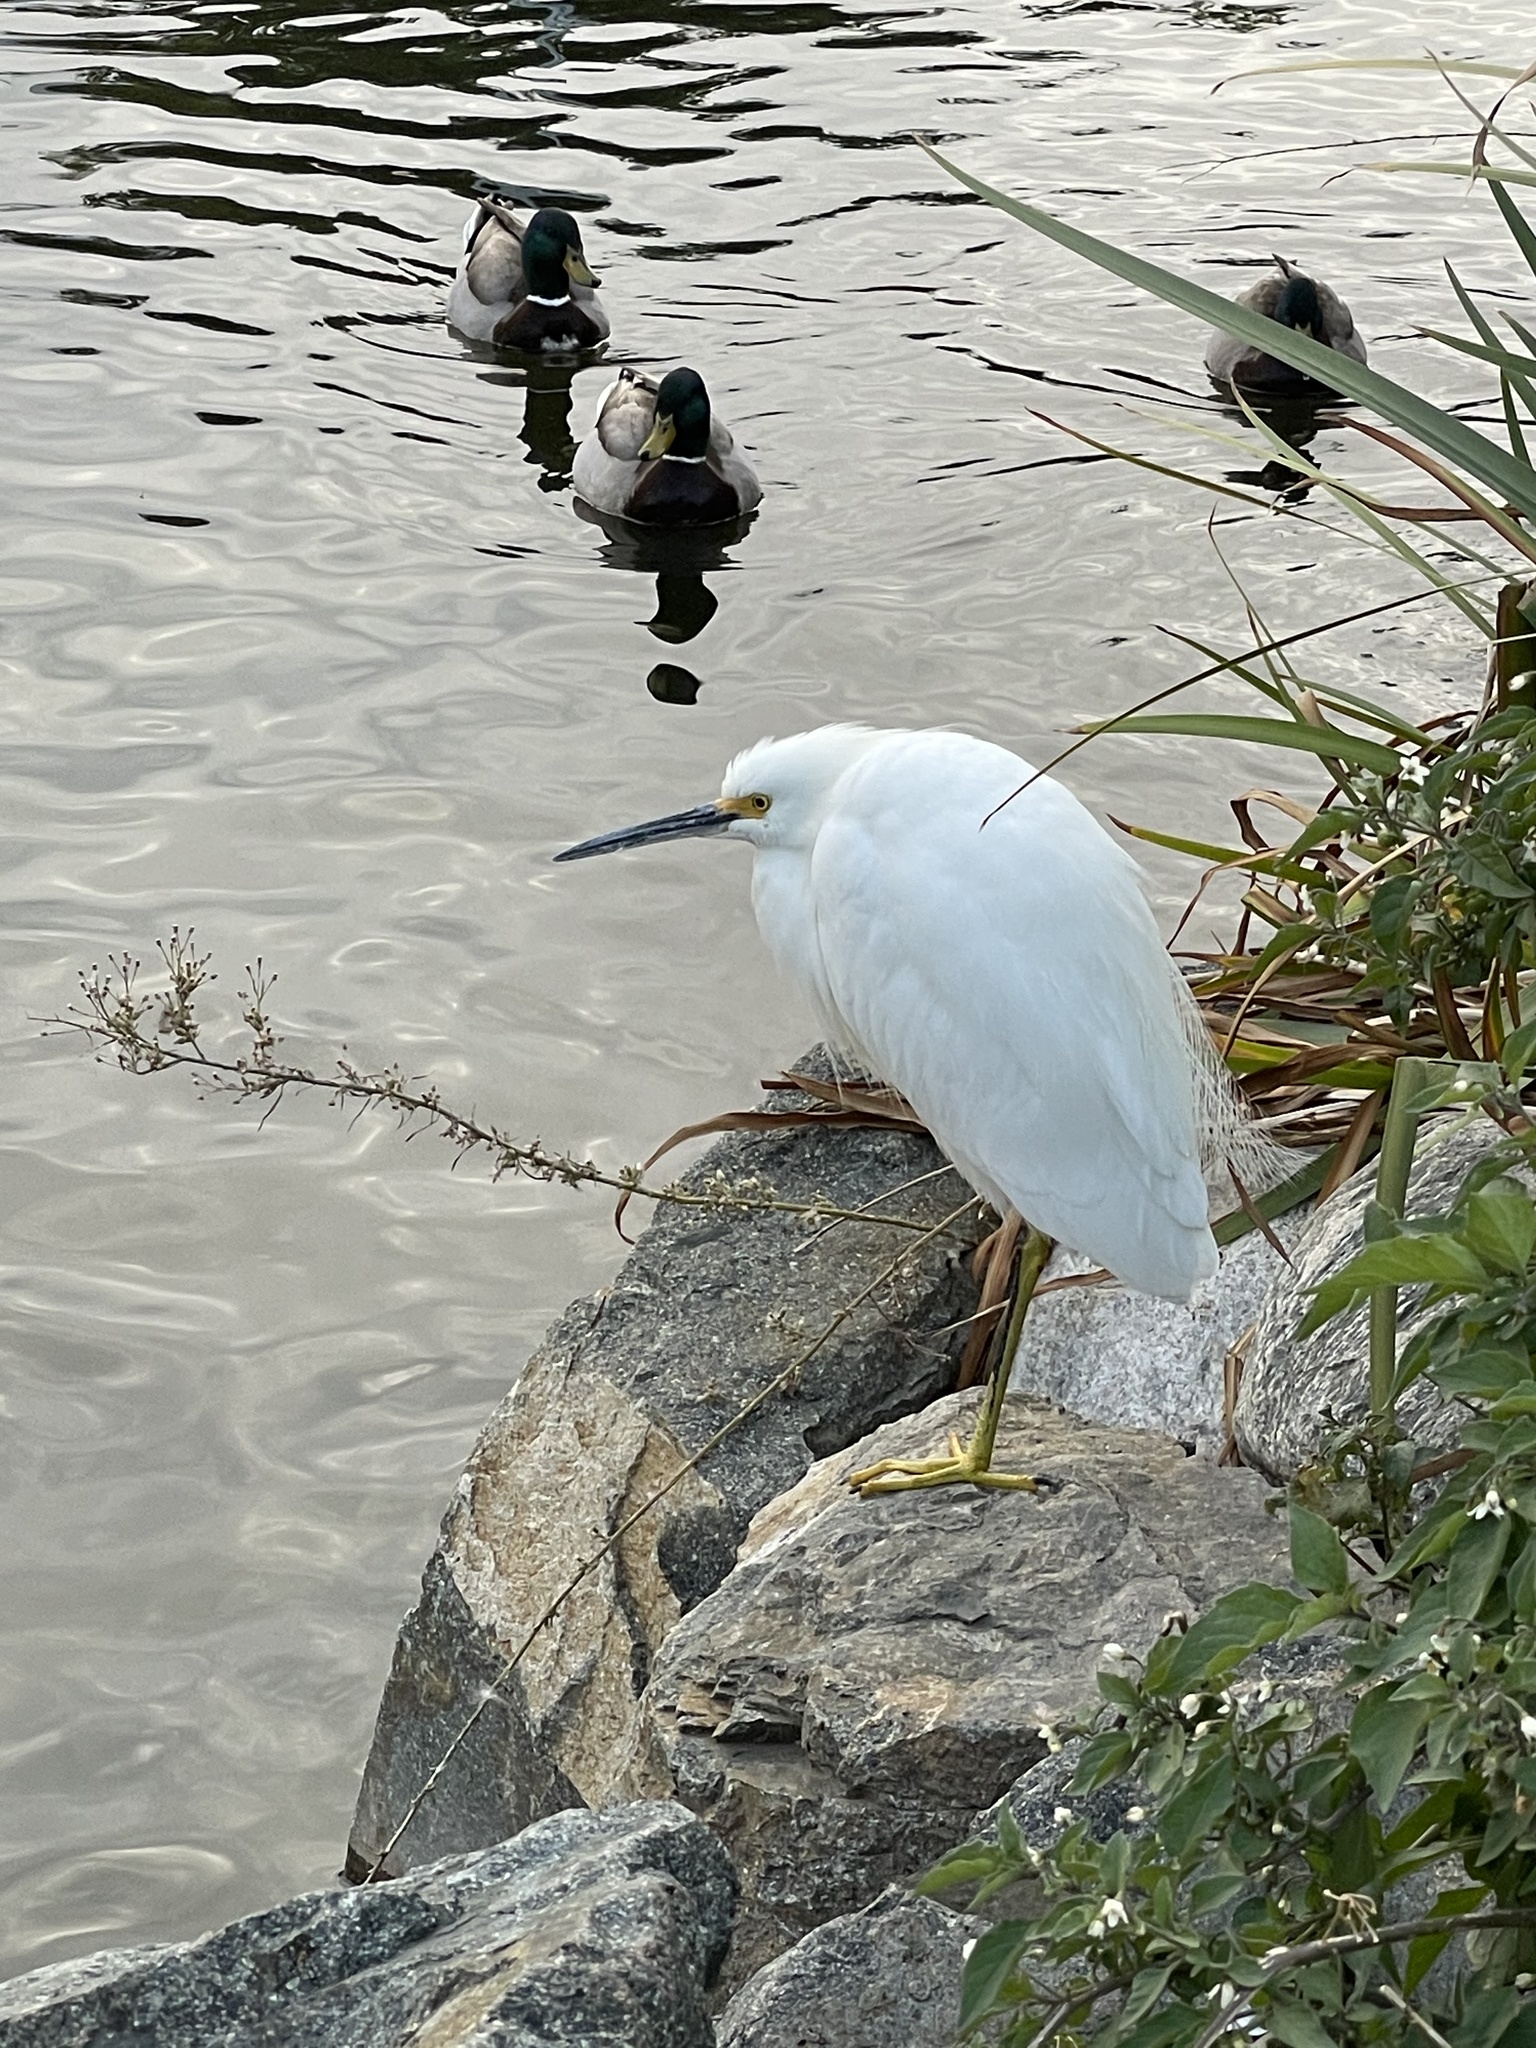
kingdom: Animalia
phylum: Chordata
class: Aves
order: Pelecaniformes
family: Ardeidae
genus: Egretta
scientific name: Egretta thula
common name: Snowy egret
